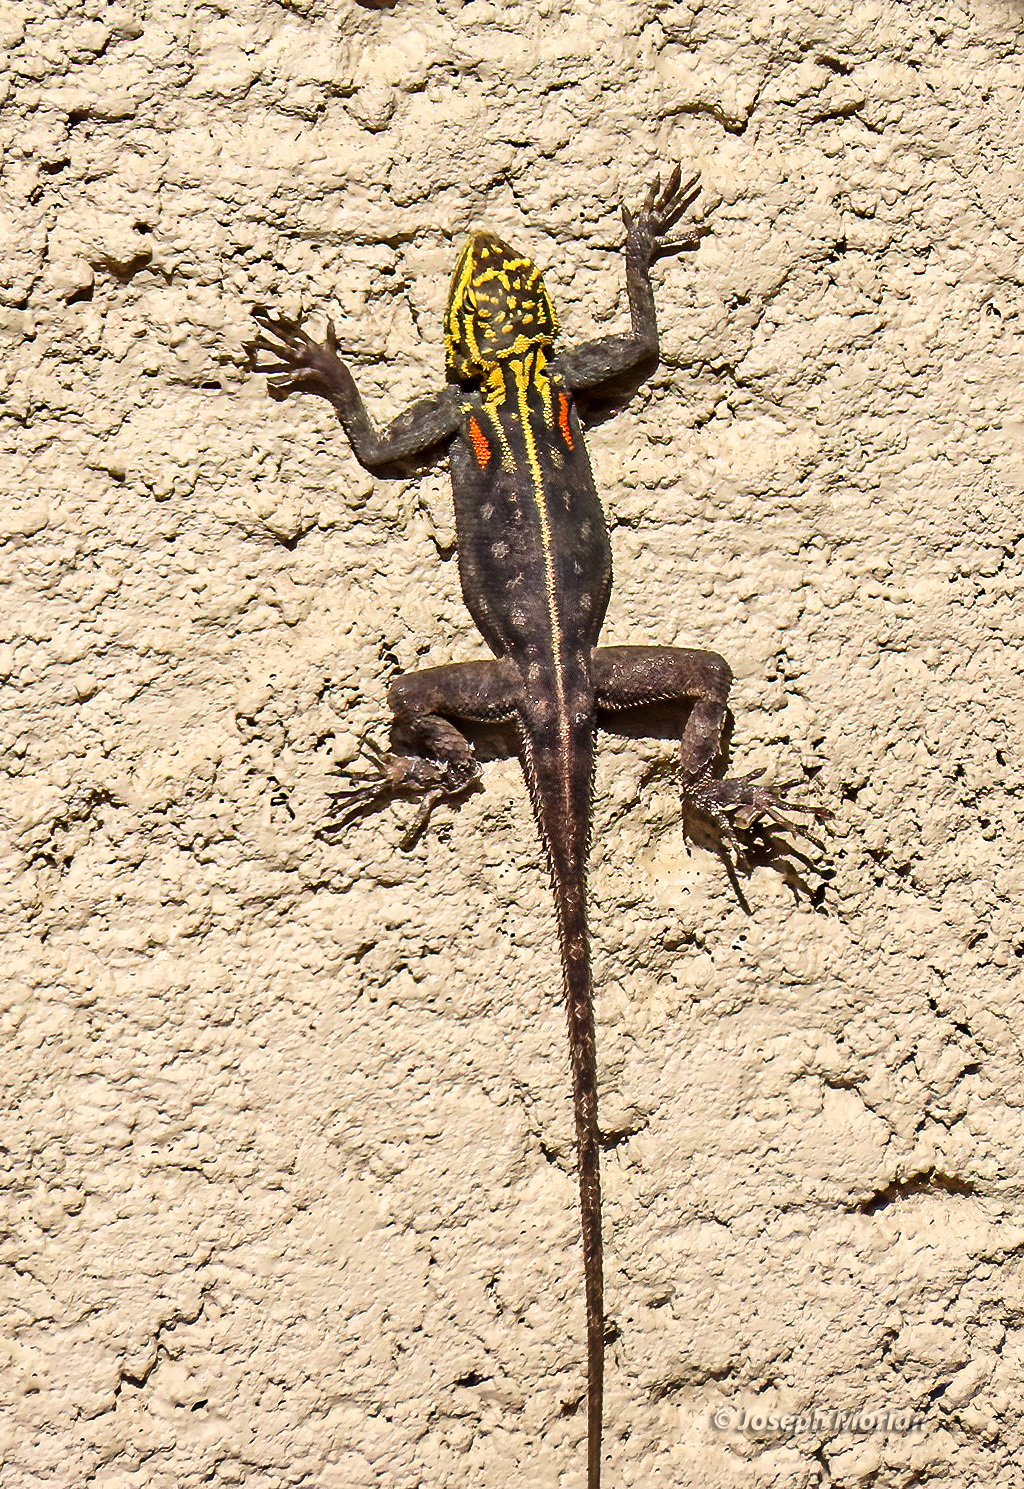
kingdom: Animalia
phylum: Chordata
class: Squamata
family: Agamidae
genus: Agama
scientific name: Agama planiceps
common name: Namib rock agama
